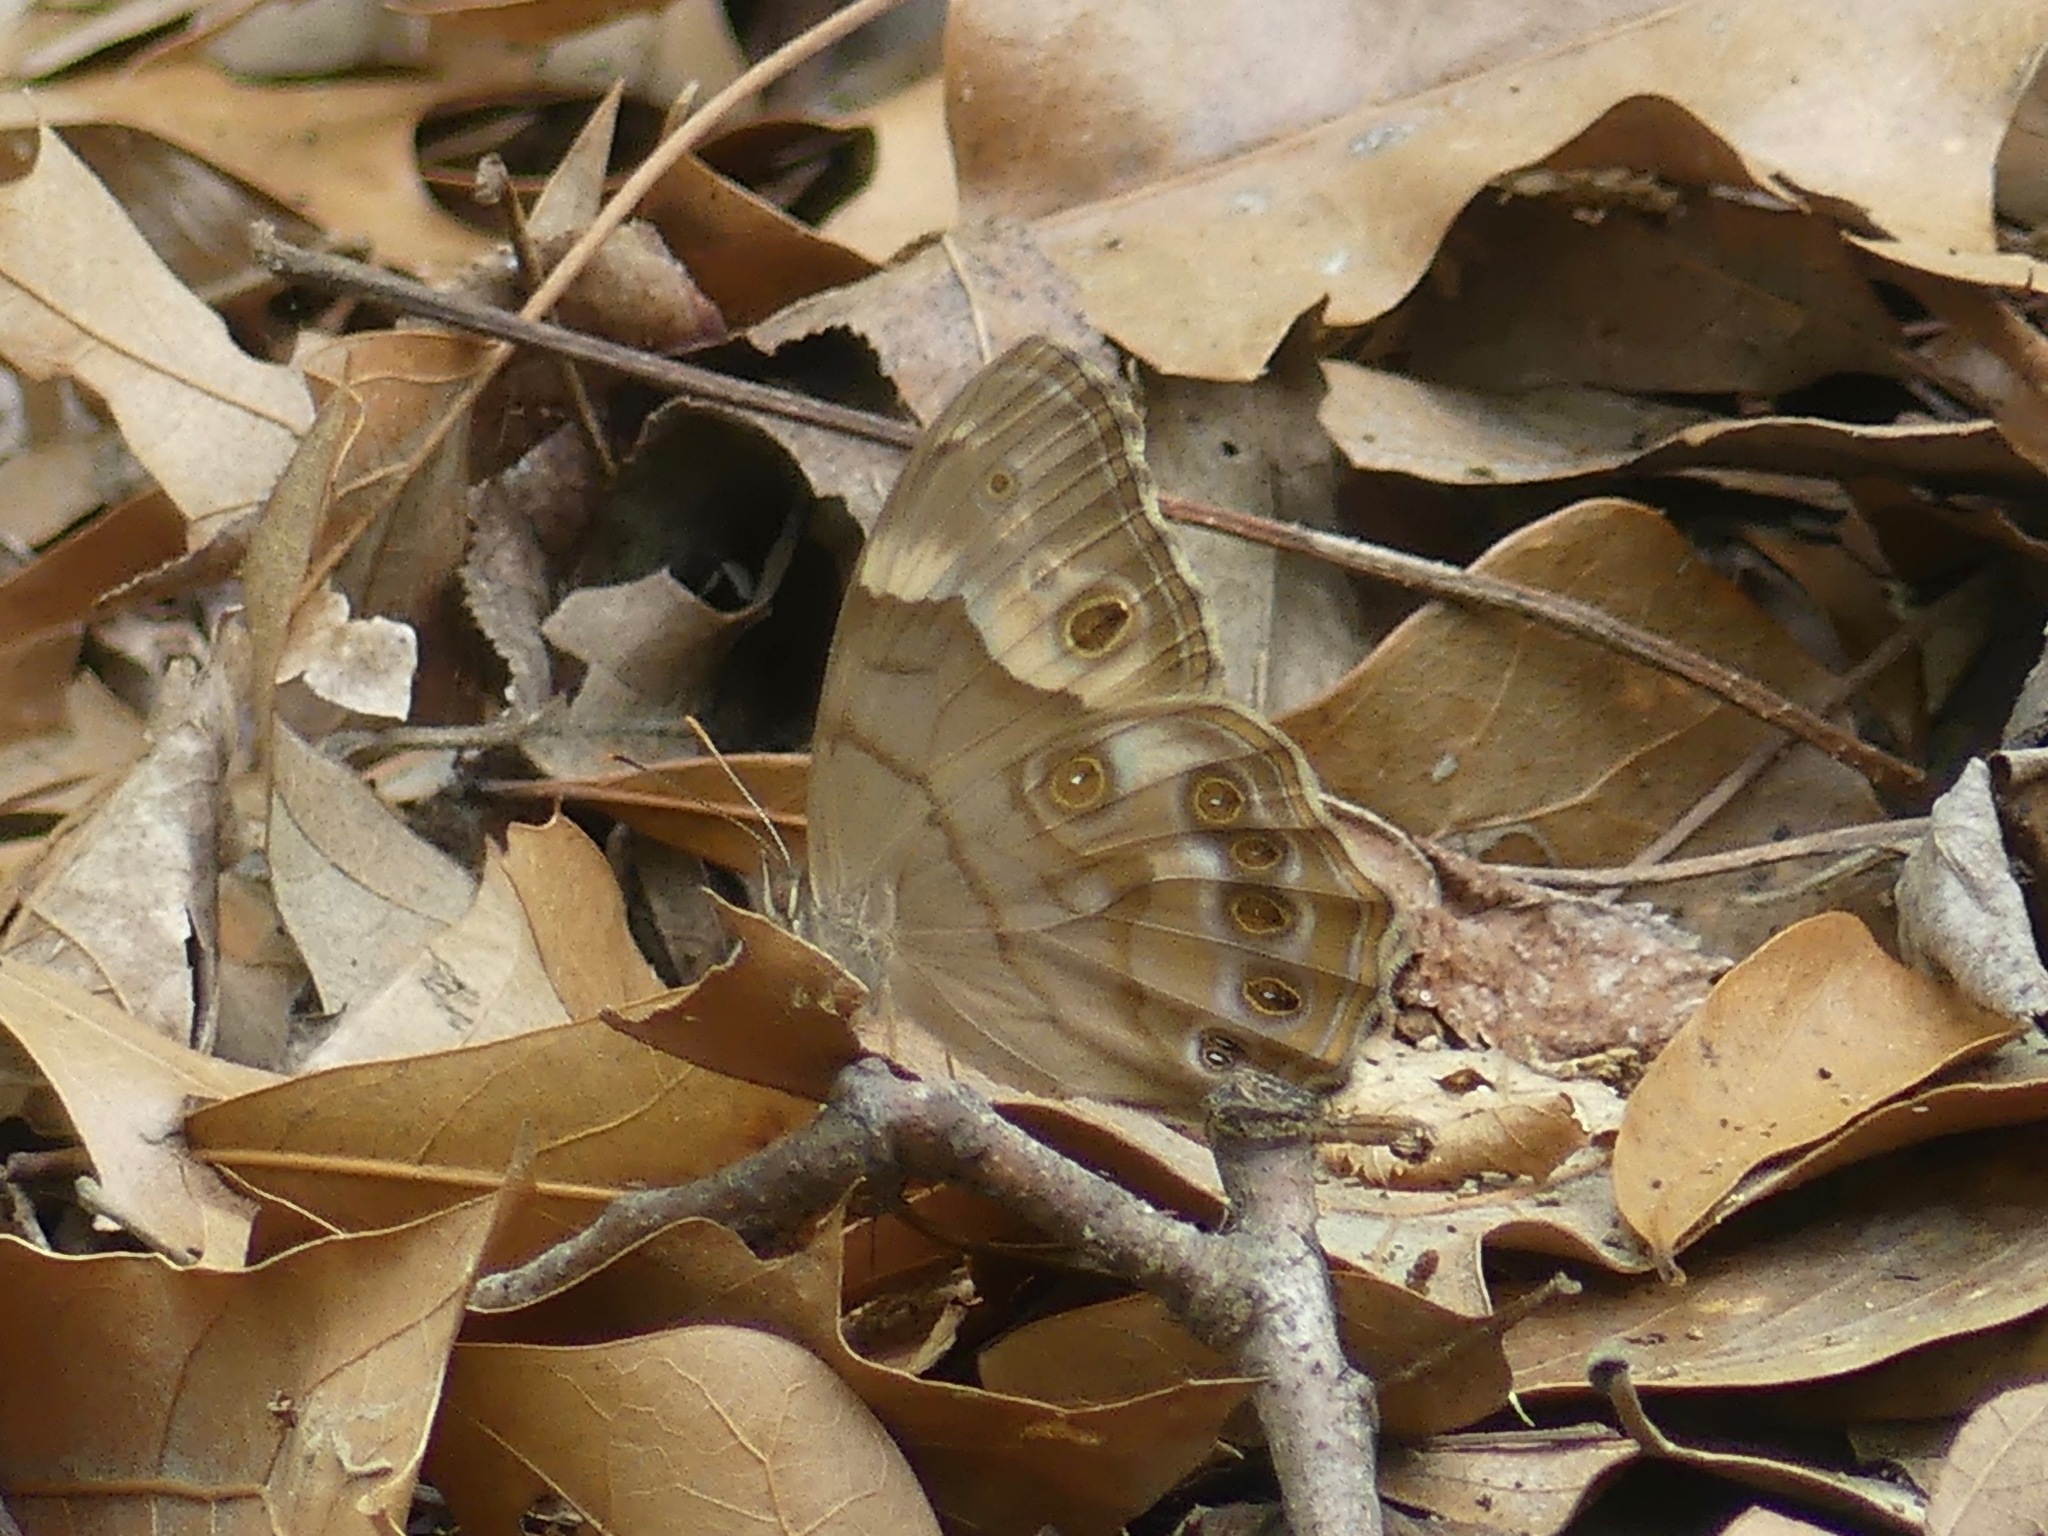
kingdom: Animalia
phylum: Arthropoda
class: Insecta
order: Lepidoptera
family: Nymphalidae
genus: Enodia
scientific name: Enodia portlandia
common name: Southern pearly-eye
